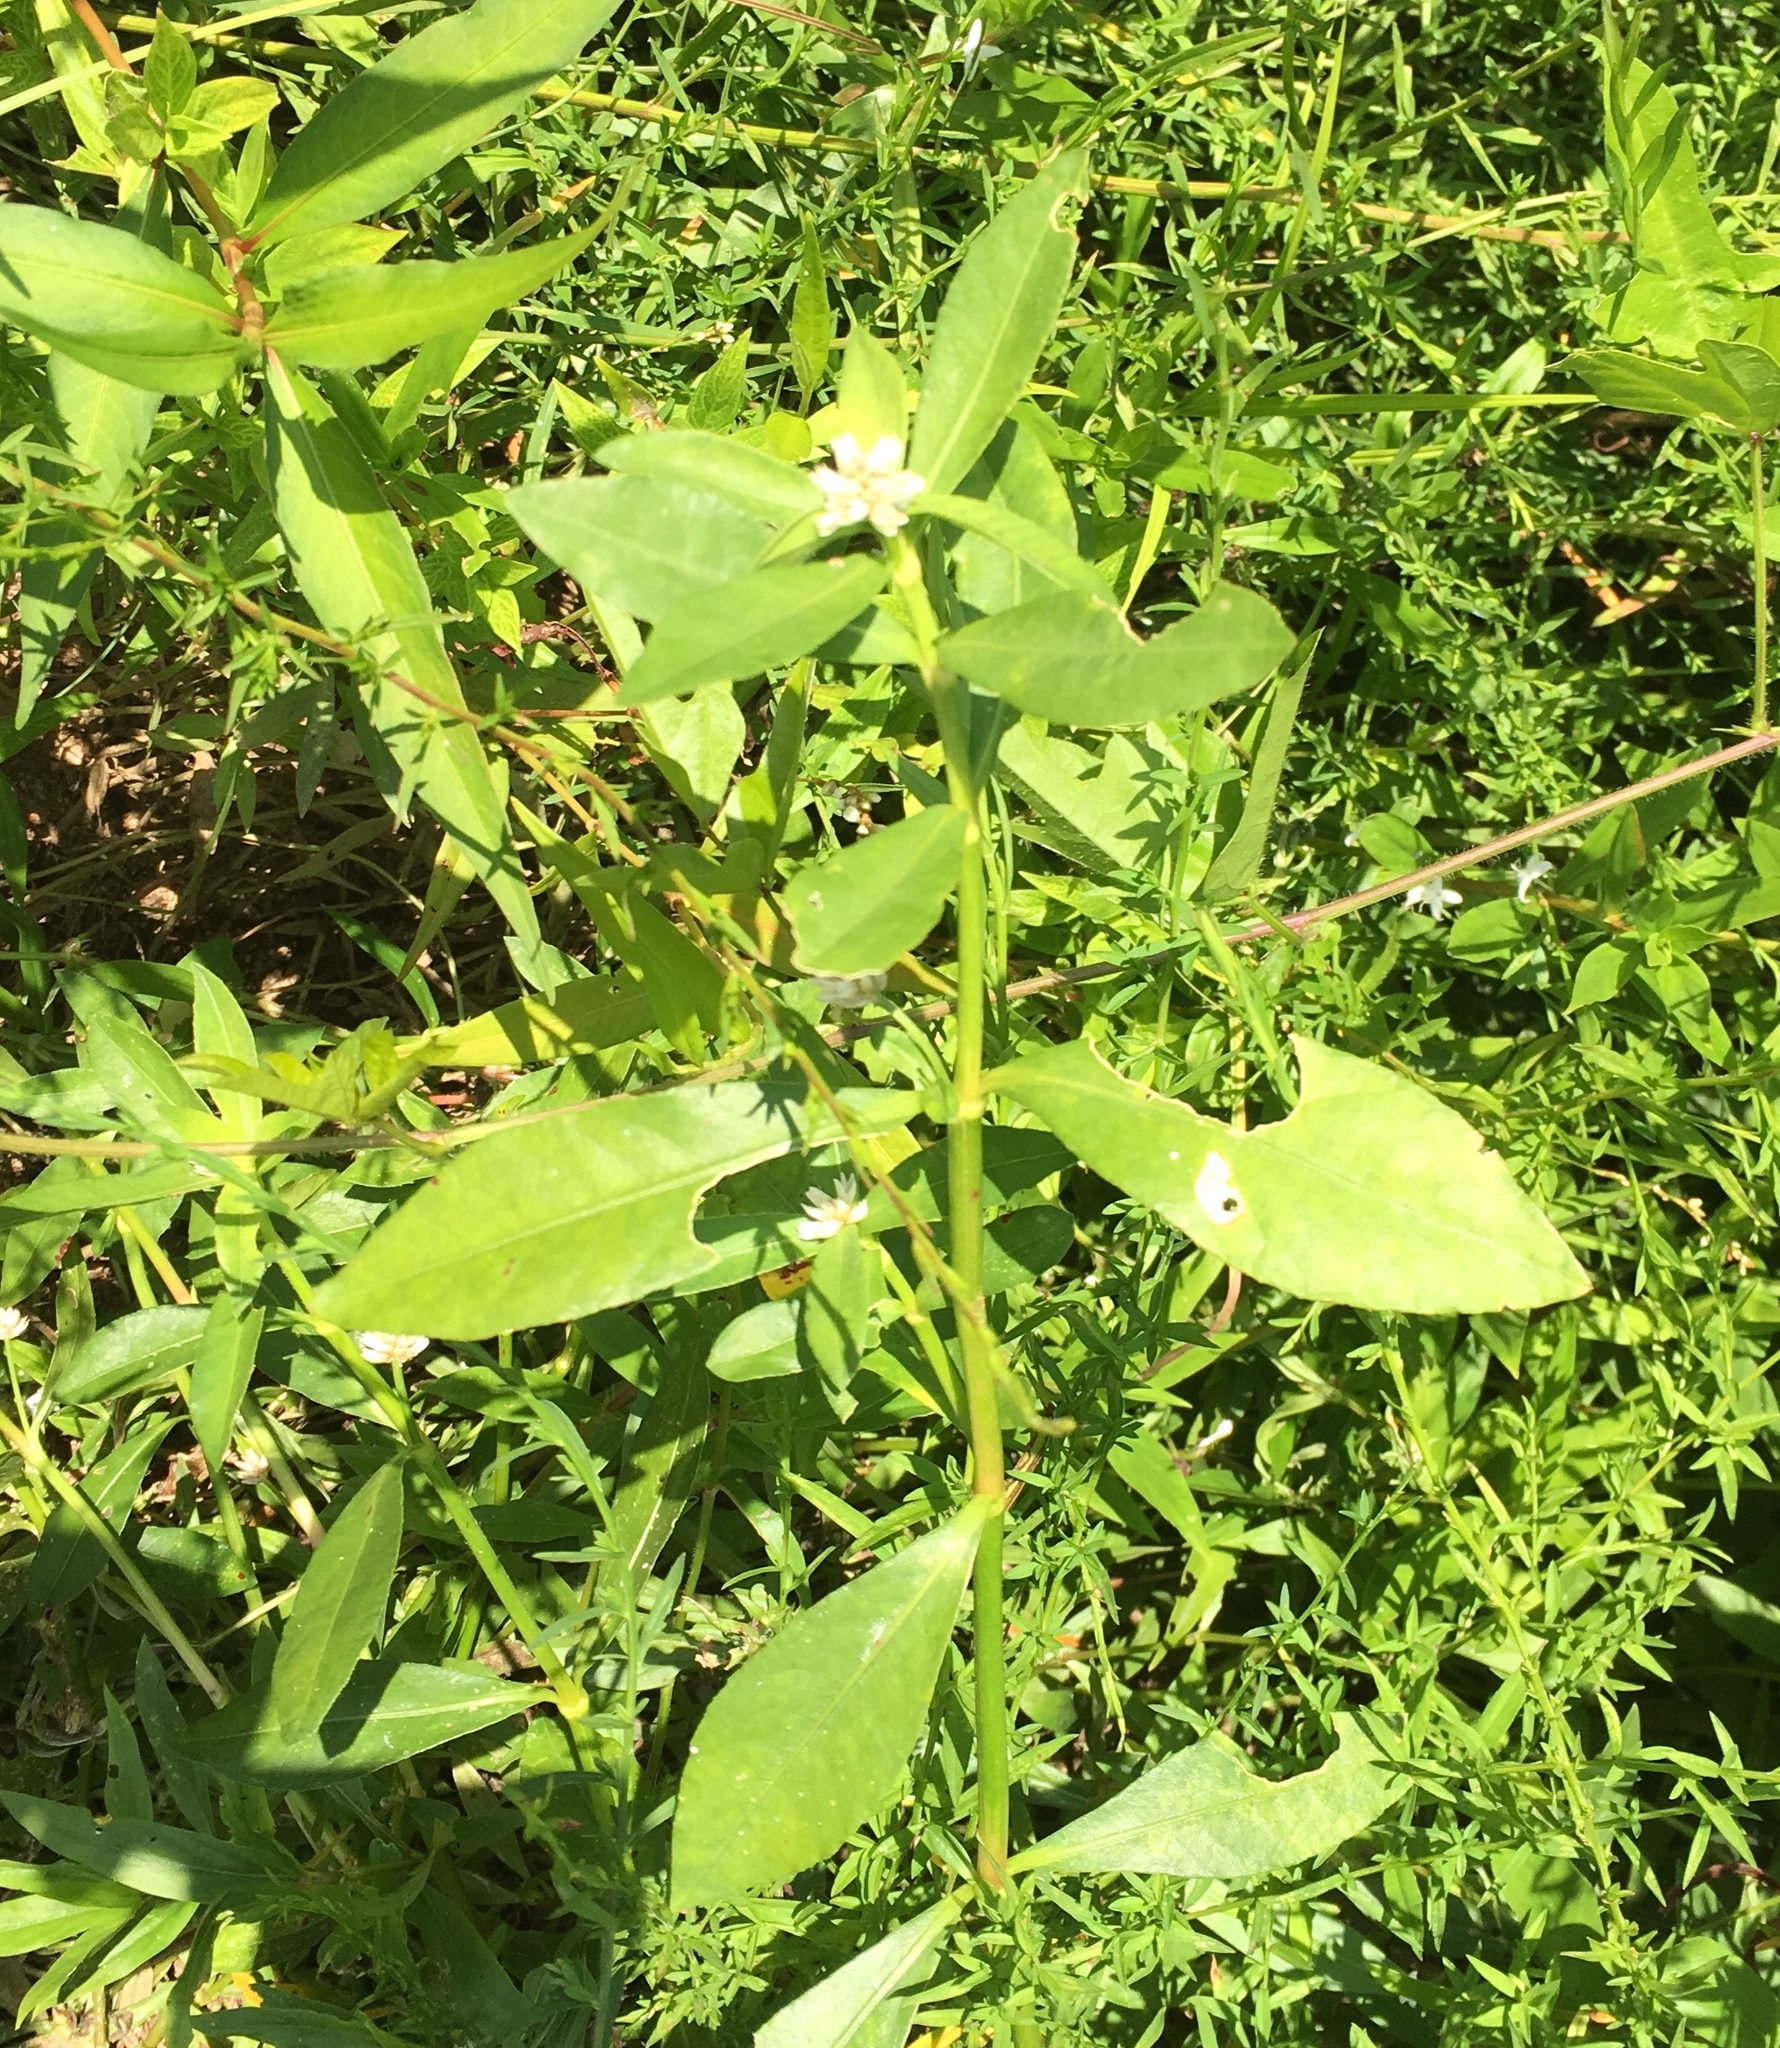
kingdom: Plantae
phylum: Tracheophyta
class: Magnoliopsida
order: Caryophyllales
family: Amaranthaceae
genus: Alternanthera
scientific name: Alternanthera philoxeroides
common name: Alligatorweed
